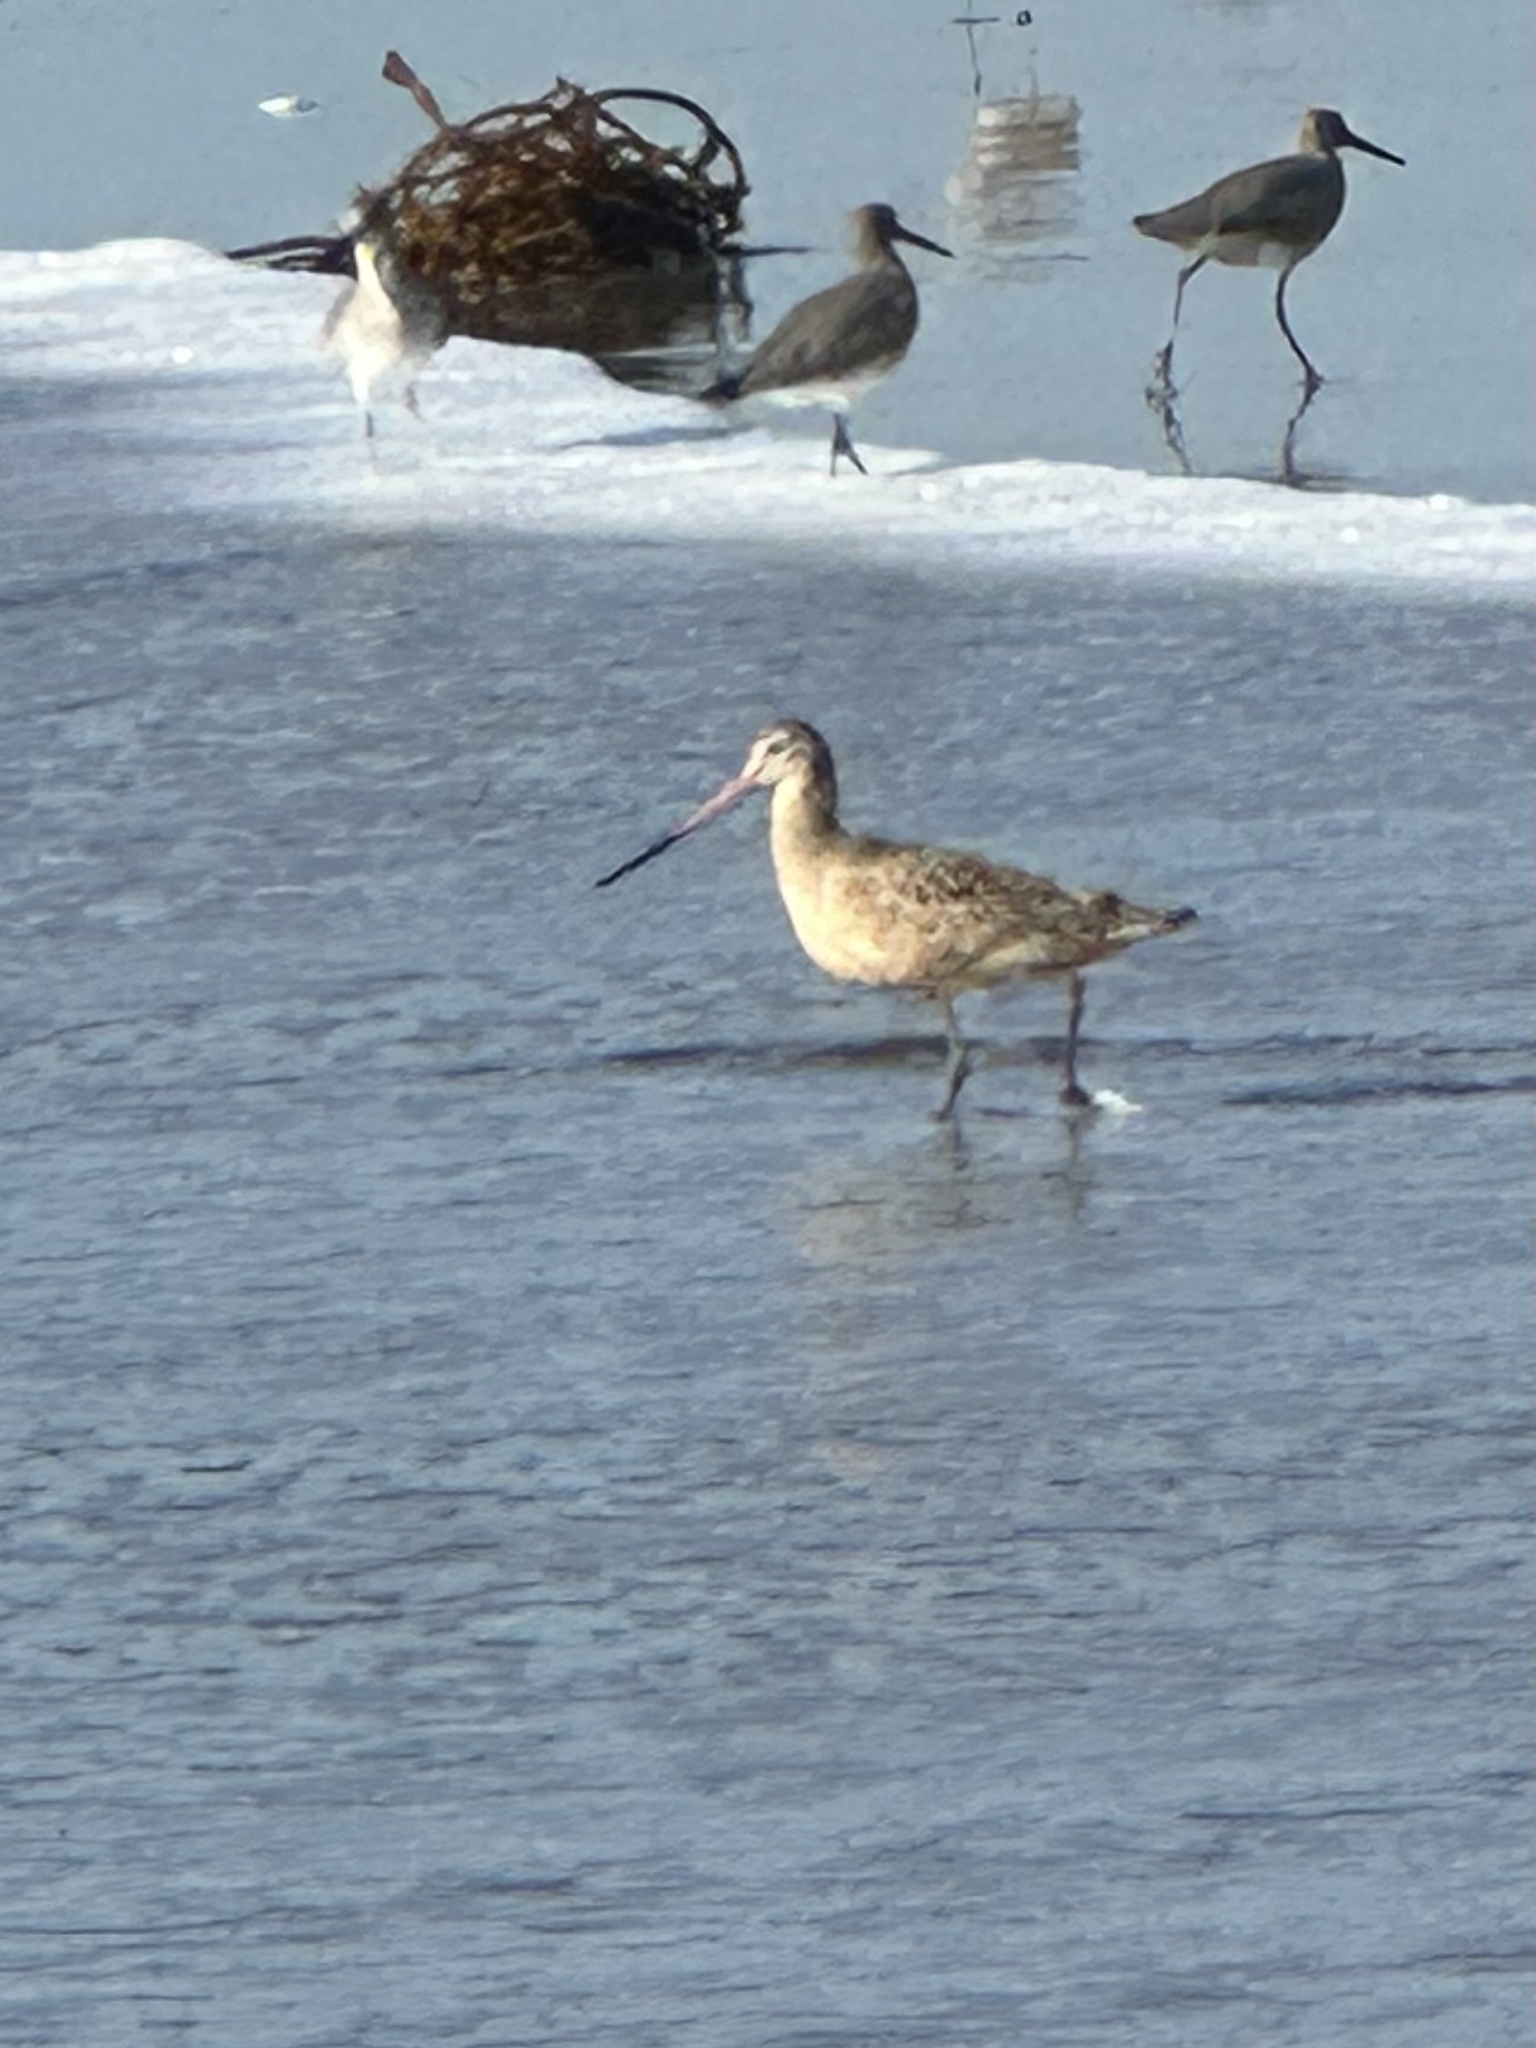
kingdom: Animalia
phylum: Chordata
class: Aves
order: Charadriiformes
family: Scolopacidae
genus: Limosa
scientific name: Limosa fedoa
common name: Marbled godwit
